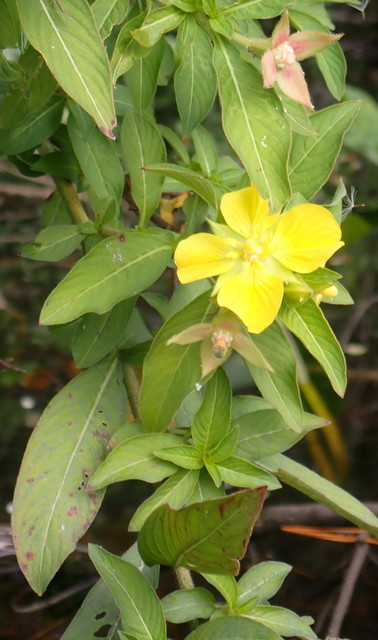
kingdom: Plantae
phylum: Tracheophyta
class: Magnoliopsida
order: Myrtales
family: Onagraceae
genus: Ludwigia
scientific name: Ludwigia peruviana
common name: Peruvian primrose-willow
